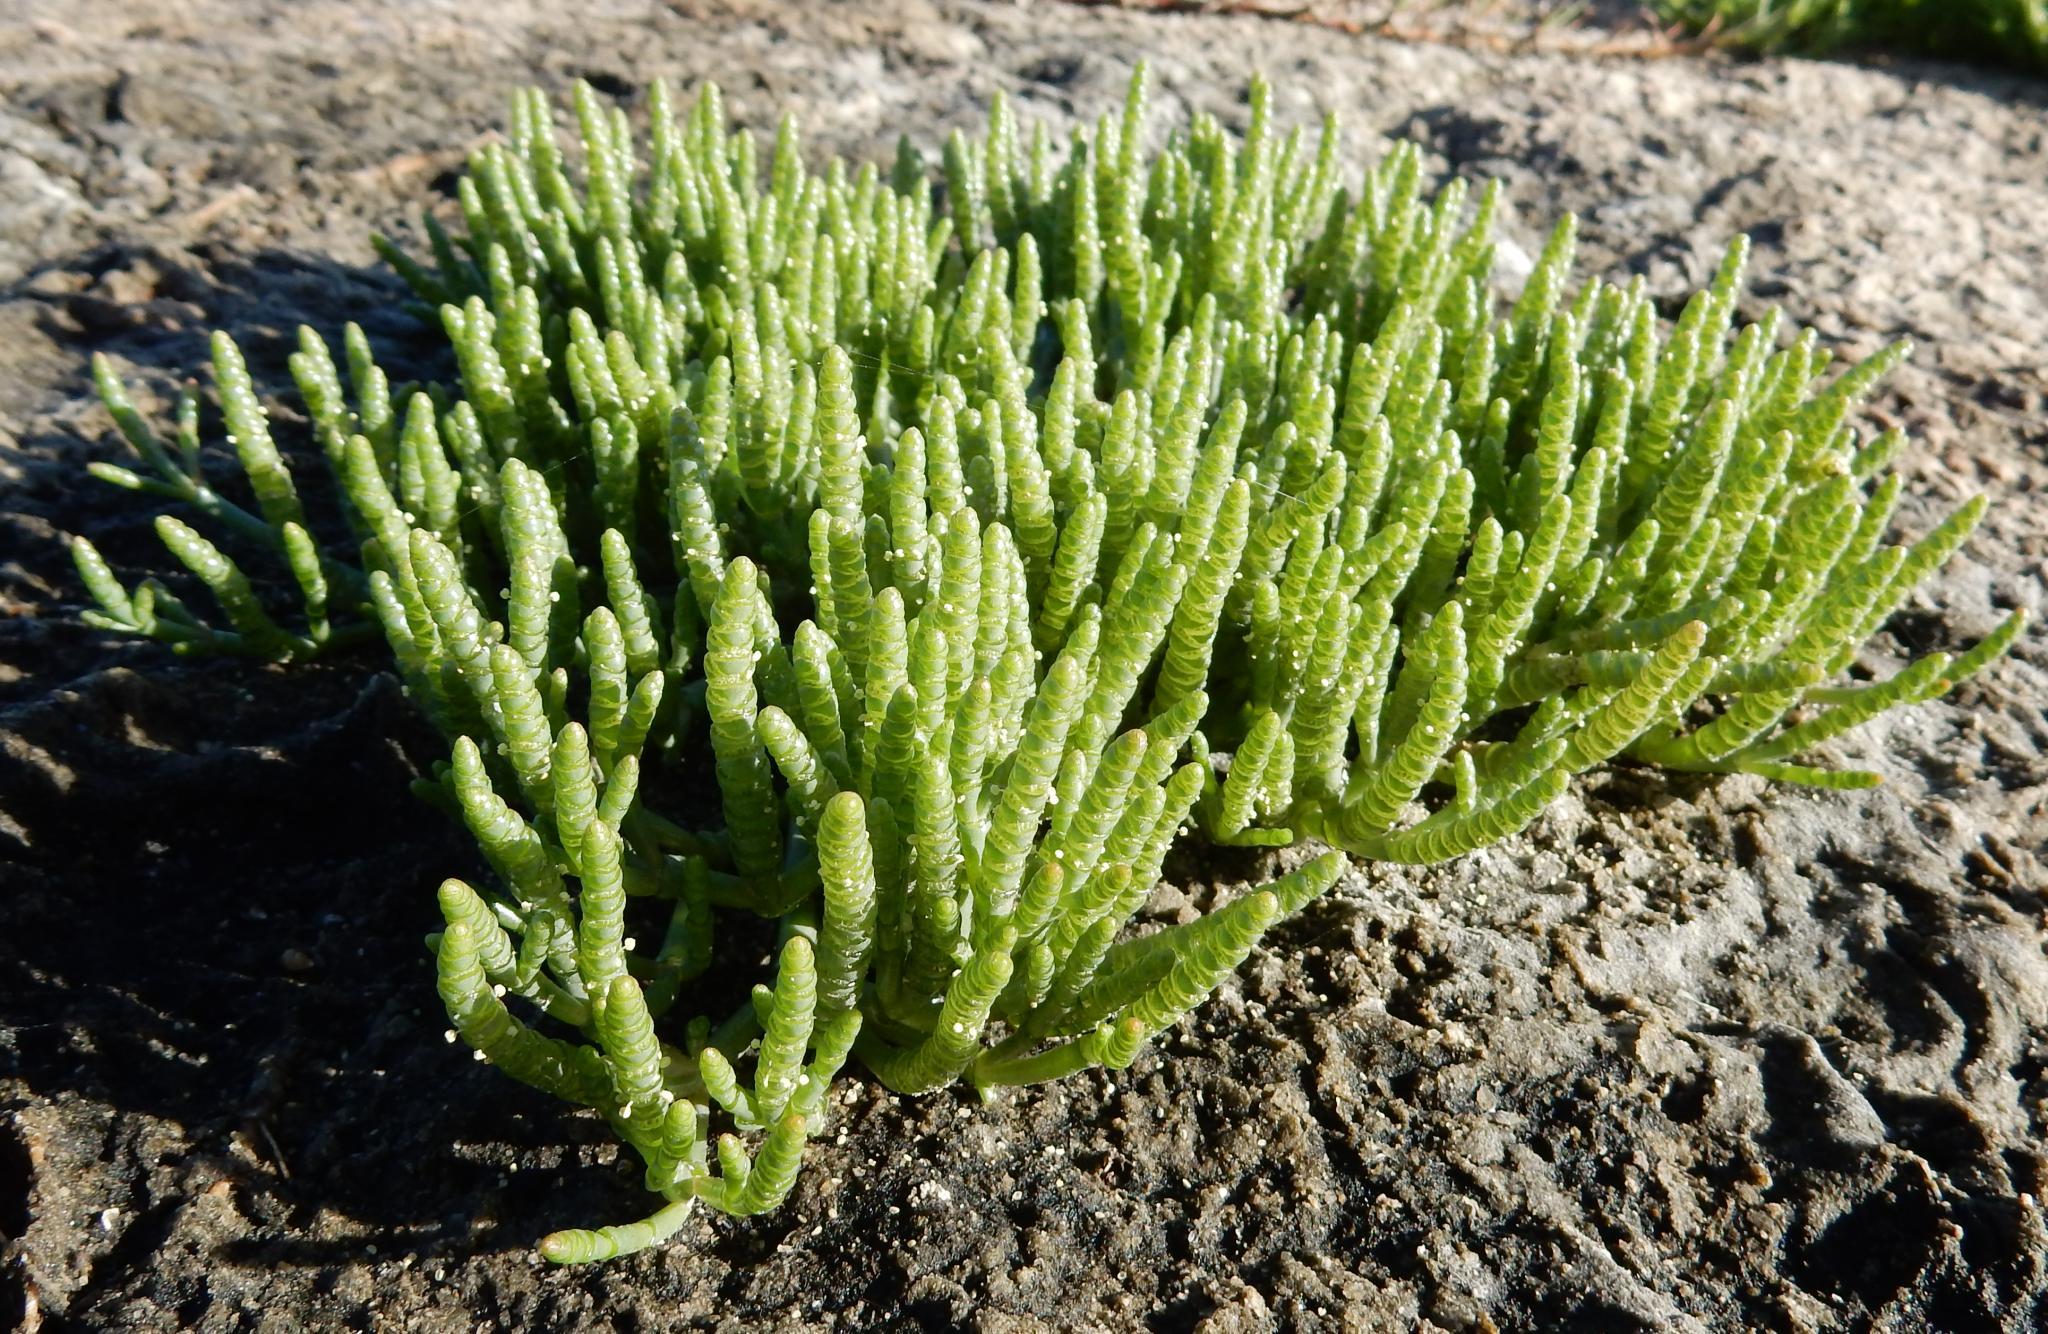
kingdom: Plantae
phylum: Tracheophyta
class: Magnoliopsida
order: Caryophyllales
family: Amaranthaceae
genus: Salicornia
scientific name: Salicornia natalensis
